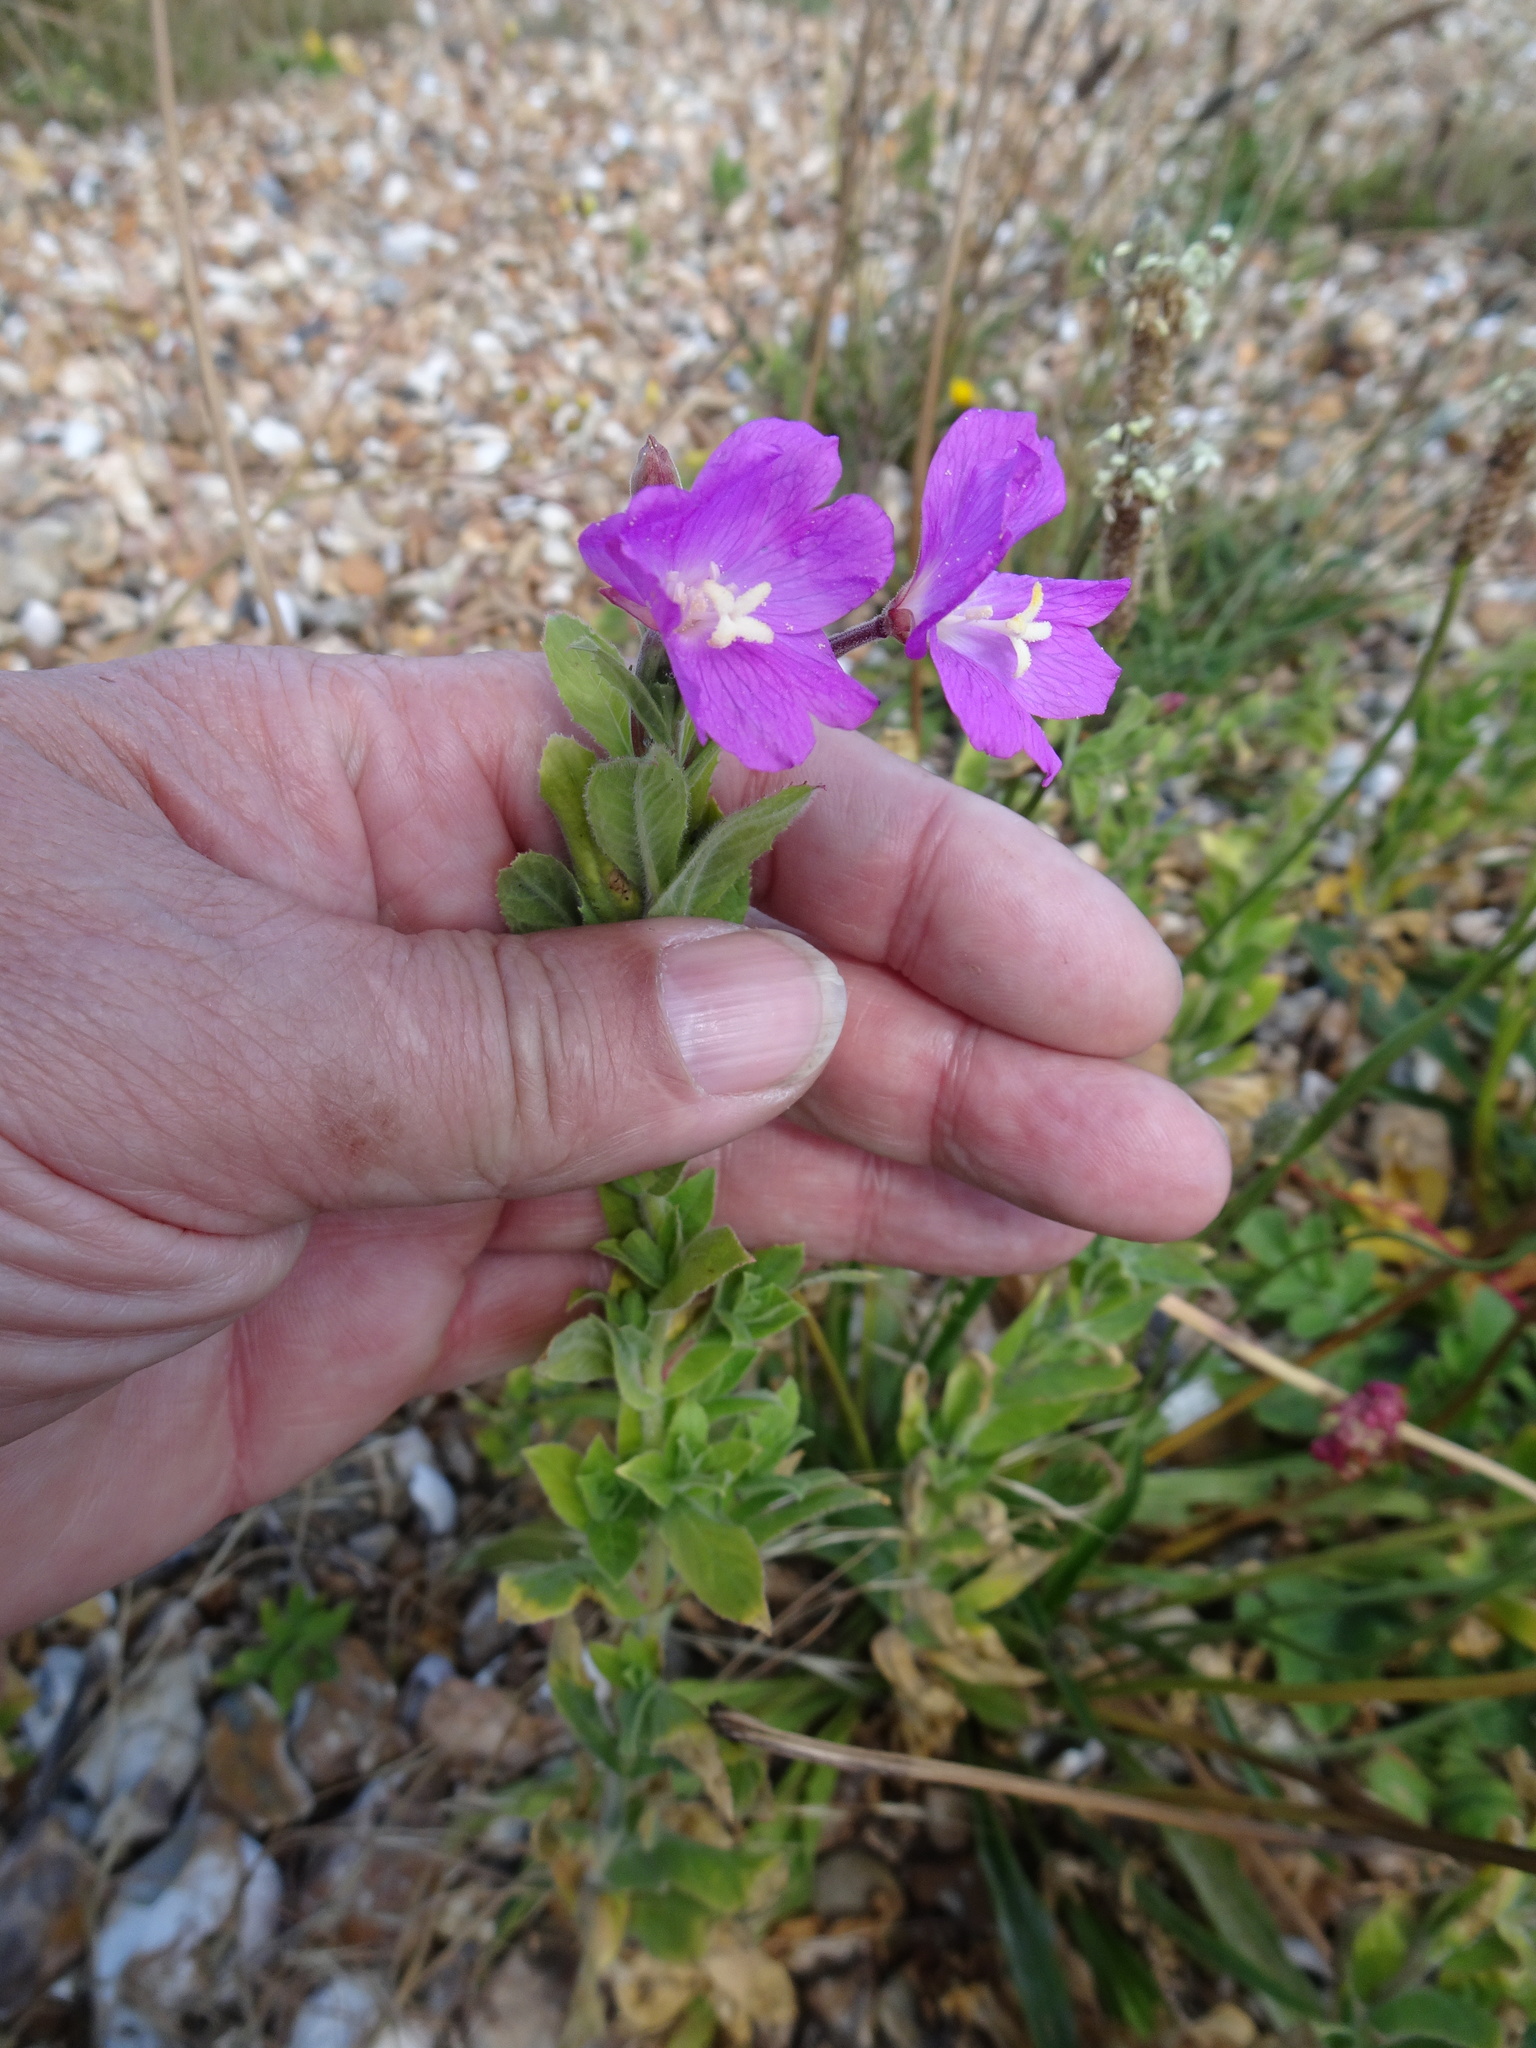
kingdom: Plantae
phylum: Tracheophyta
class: Magnoliopsida
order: Myrtales
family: Onagraceae
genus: Epilobium
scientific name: Epilobium hirsutum
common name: Great willowherb
